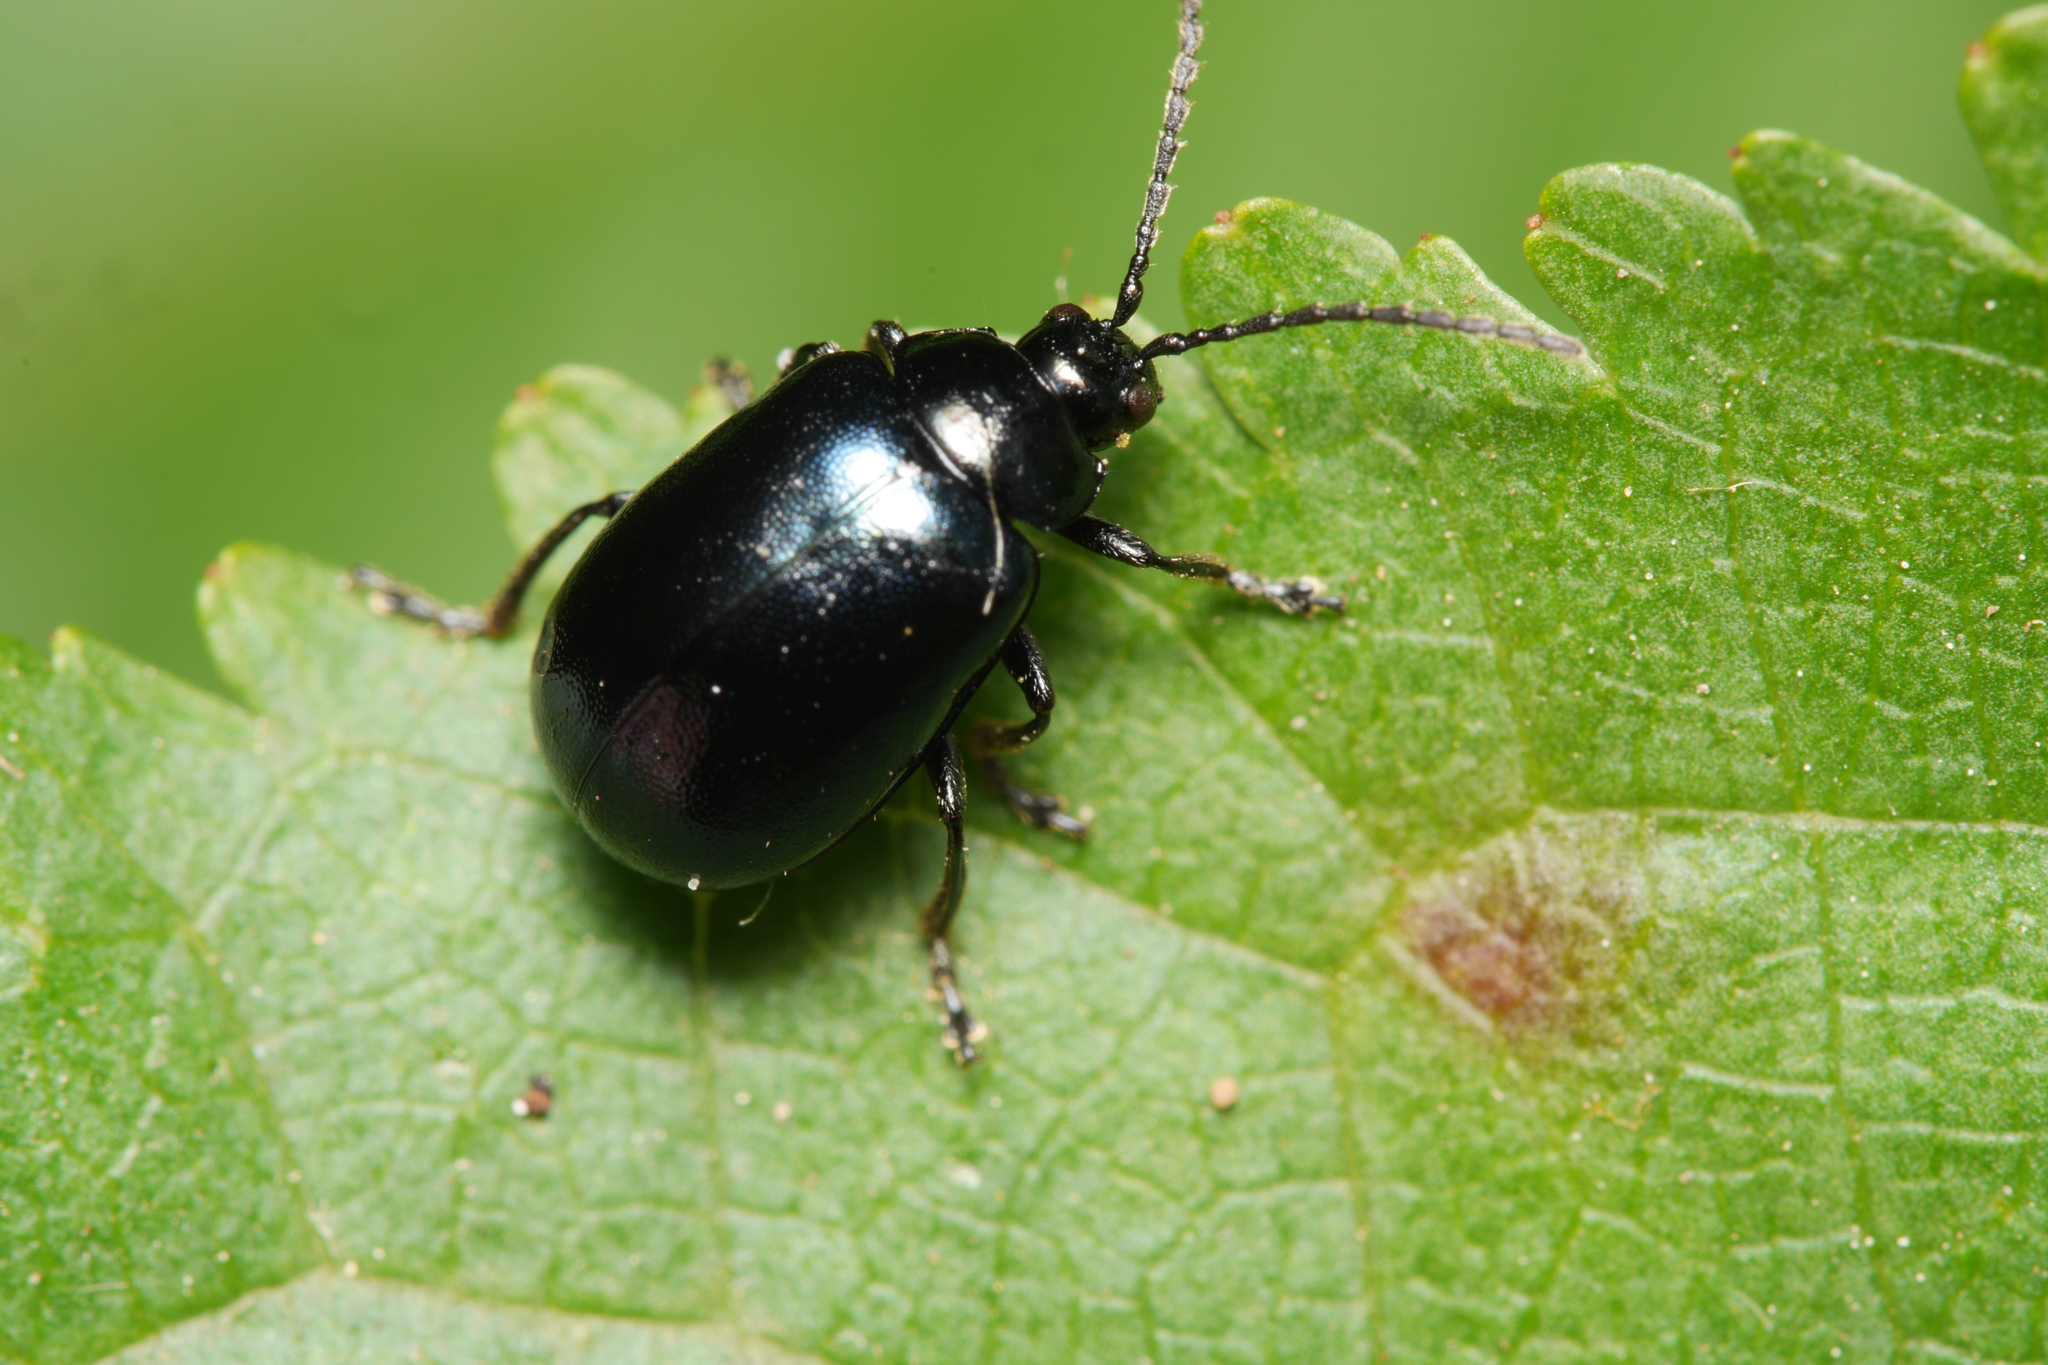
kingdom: Animalia
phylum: Arthropoda
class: Insecta
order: Coleoptera
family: Chrysomelidae
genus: Agelastica
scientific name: Agelastica alni
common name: Alder leaf beetle
